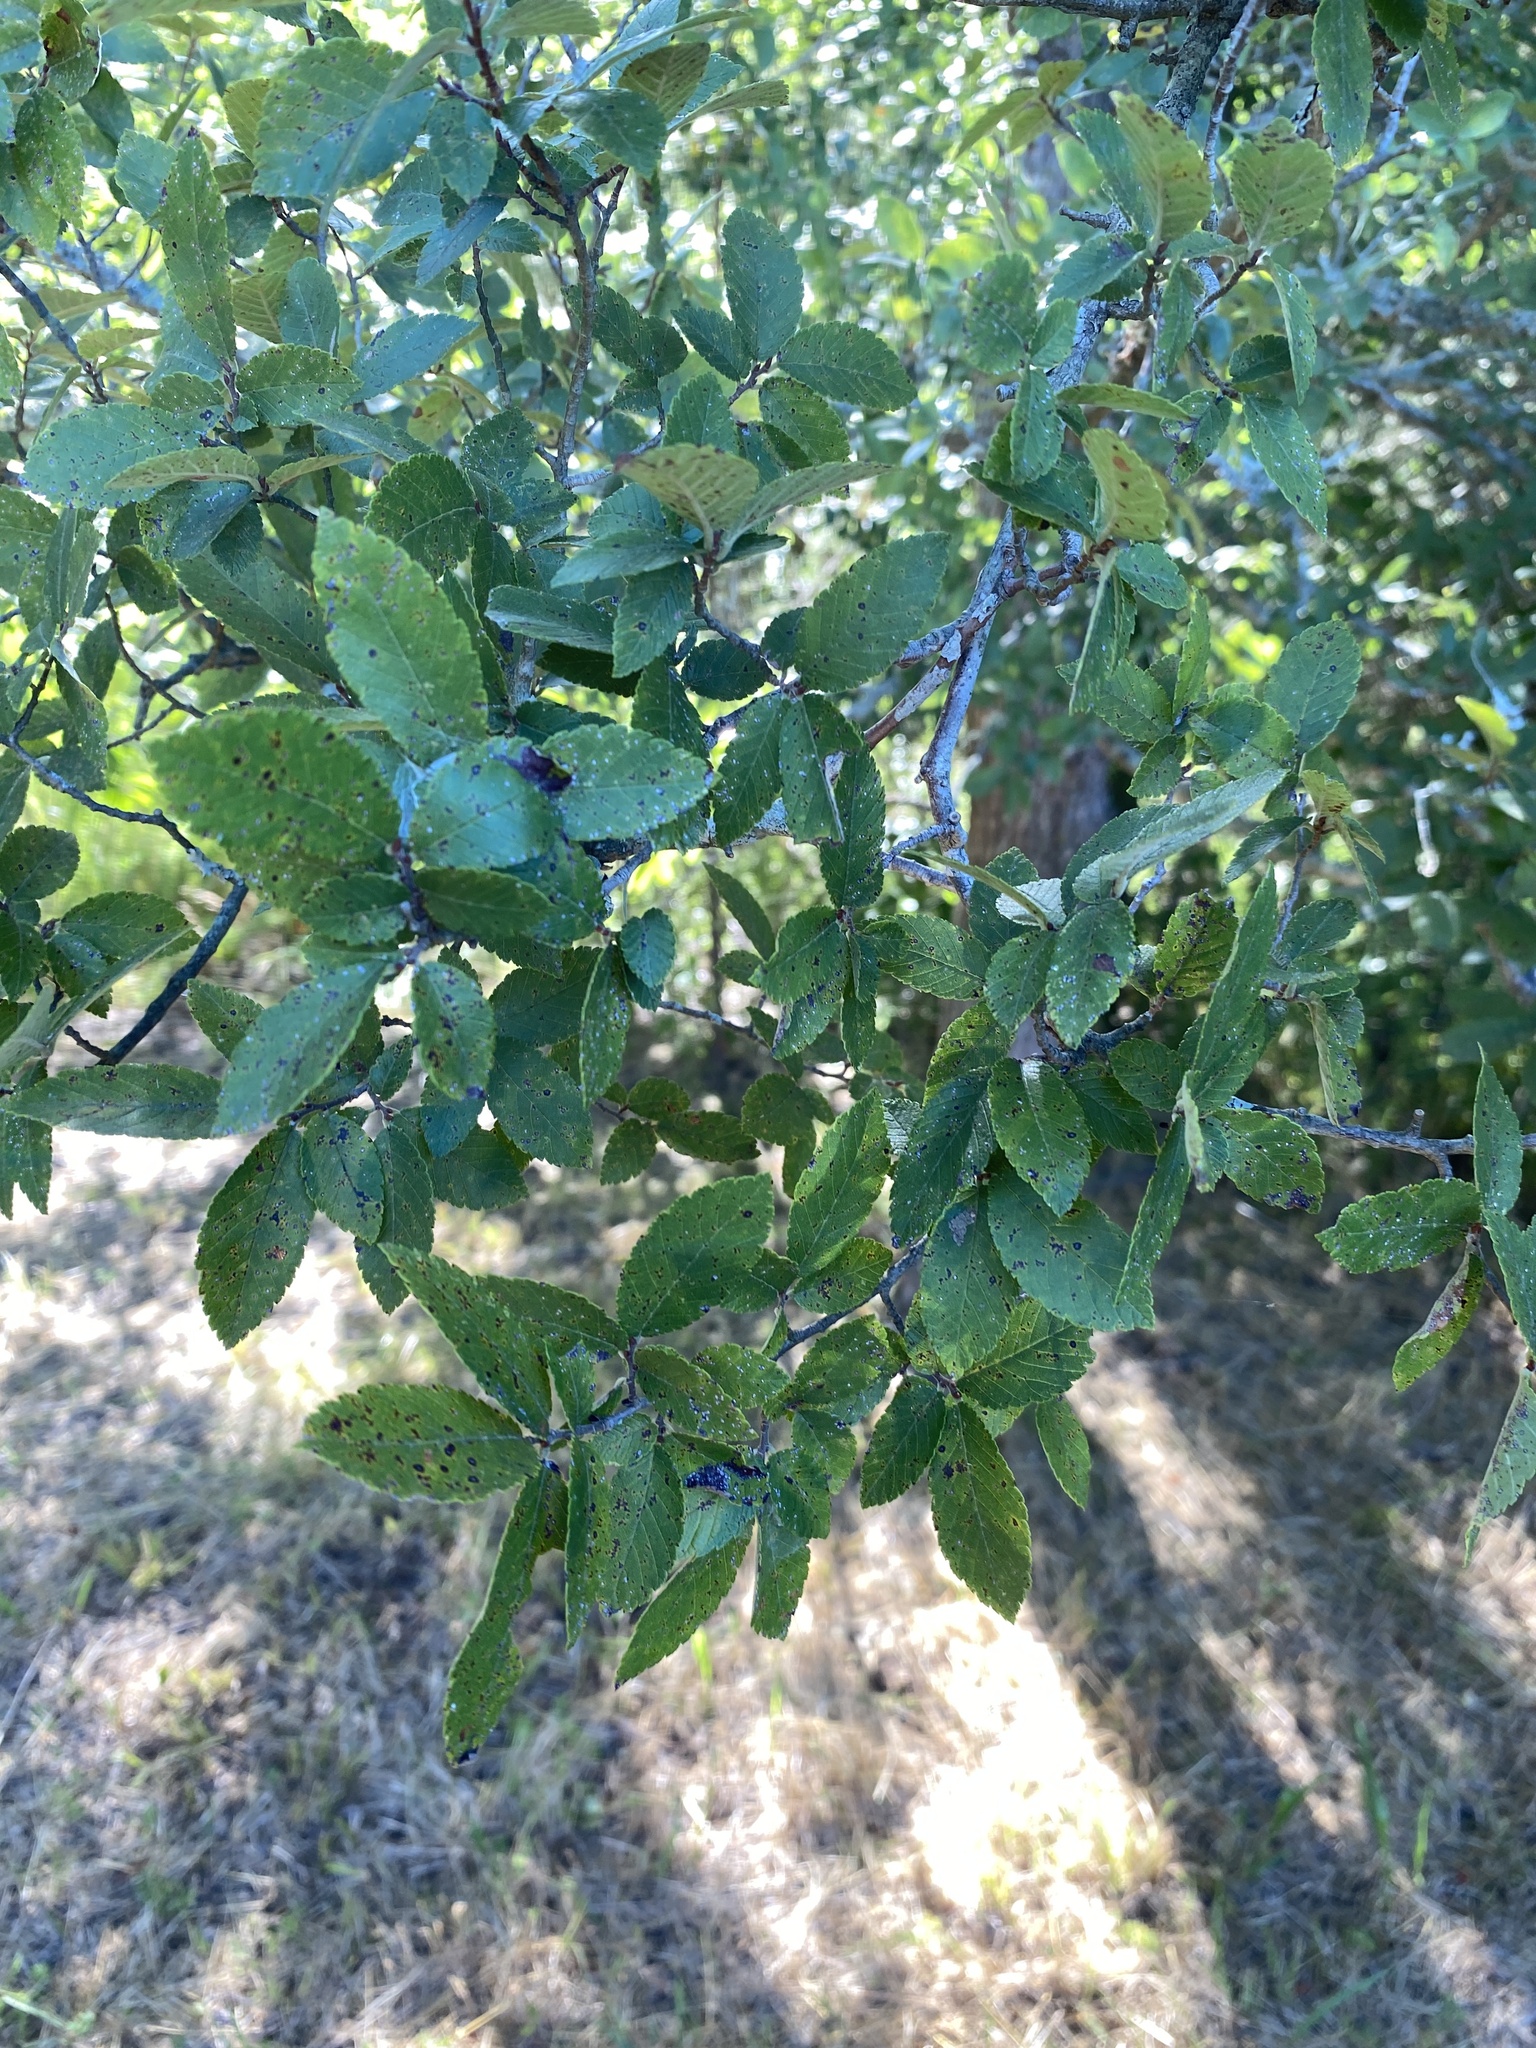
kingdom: Plantae
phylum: Tracheophyta
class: Magnoliopsida
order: Rosales
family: Ulmaceae
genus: Ulmus
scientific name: Ulmus crassifolia
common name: Basket elm
